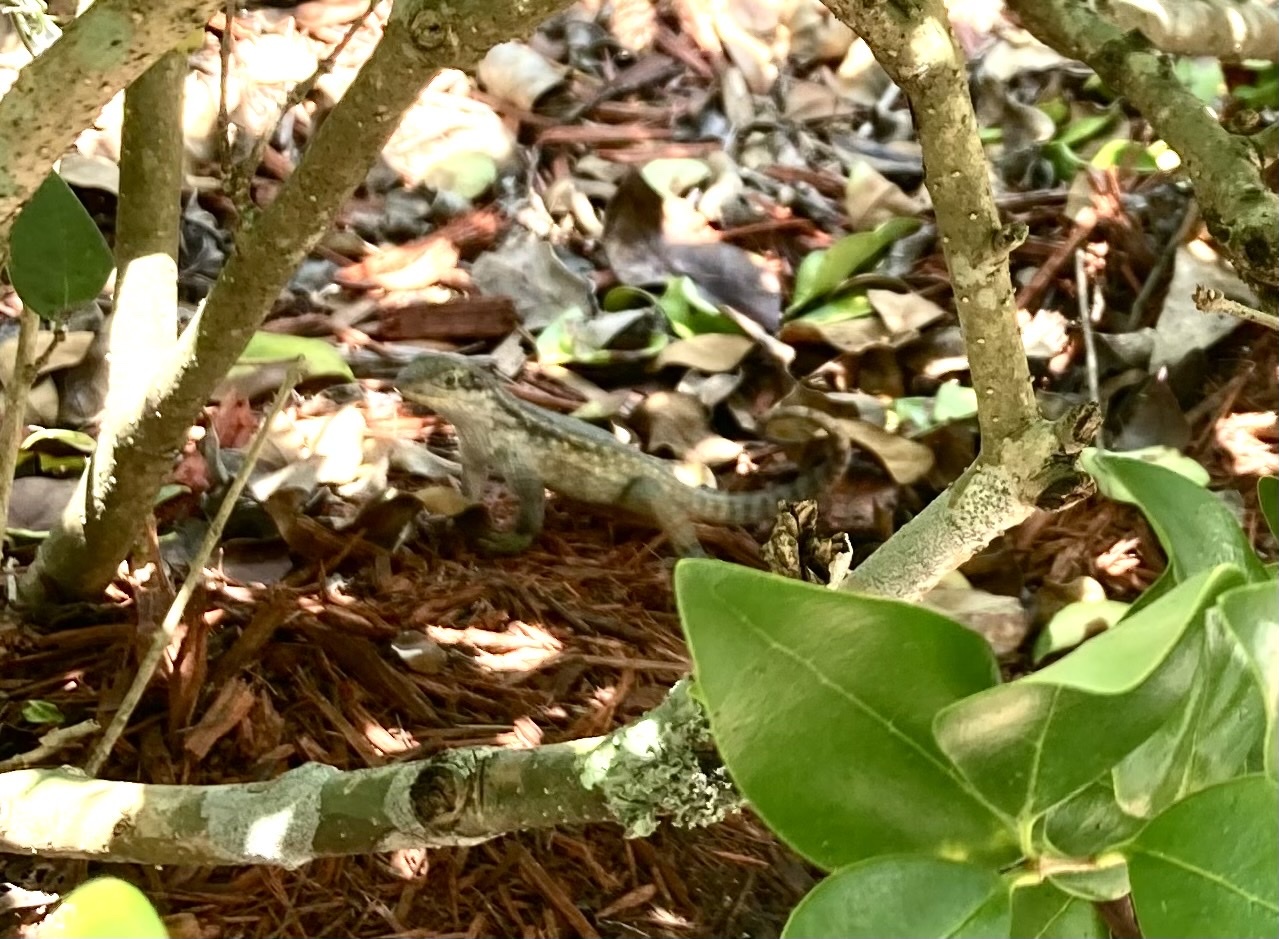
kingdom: Animalia
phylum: Chordata
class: Squamata
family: Leiocephalidae
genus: Leiocephalus
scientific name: Leiocephalus carinatus
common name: Northern curly-tailed lizard
